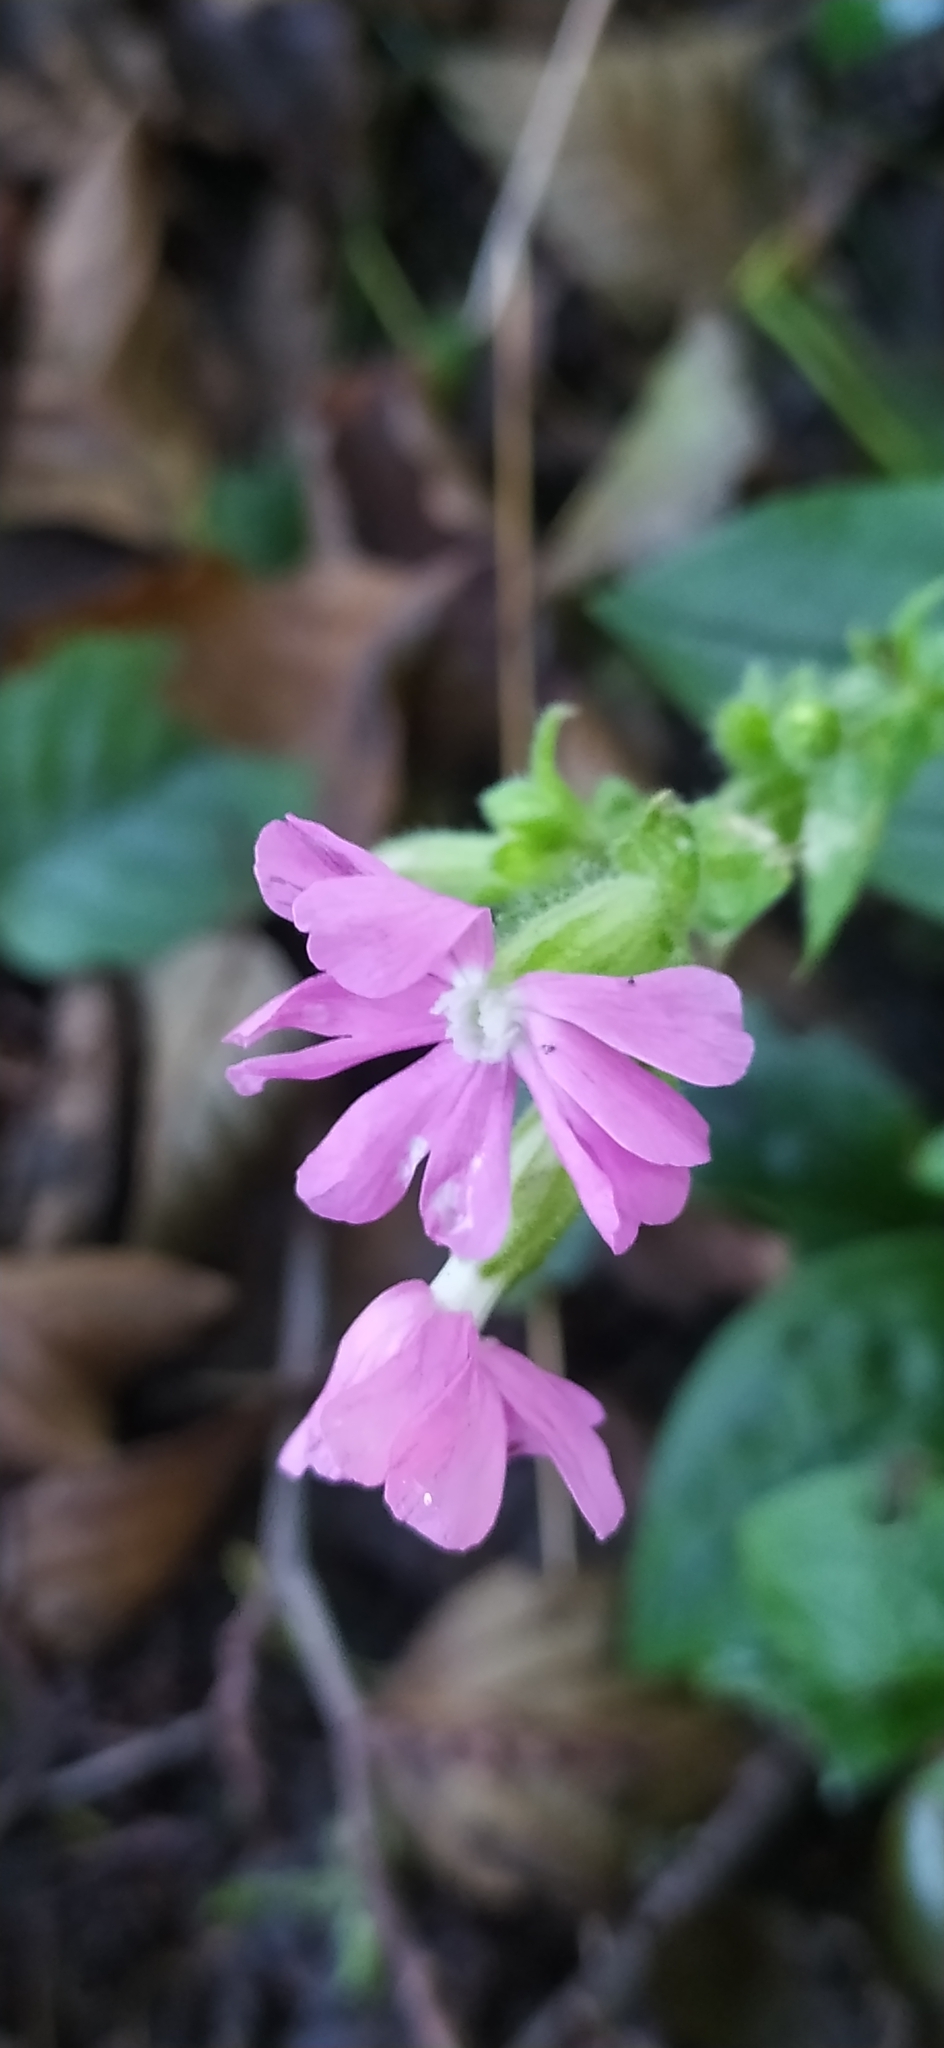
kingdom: Plantae
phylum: Tracheophyta
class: Magnoliopsida
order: Caryophyllales
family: Caryophyllaceae
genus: Silene
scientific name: Silene dioica
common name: Red campion
